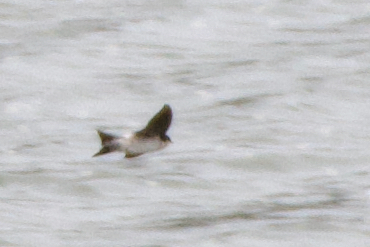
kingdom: Animalia
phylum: Chordata
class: Aves
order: Passeriformes
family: Hirundinidae
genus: Delichon
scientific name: Delichon urbicum
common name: Common house martin
